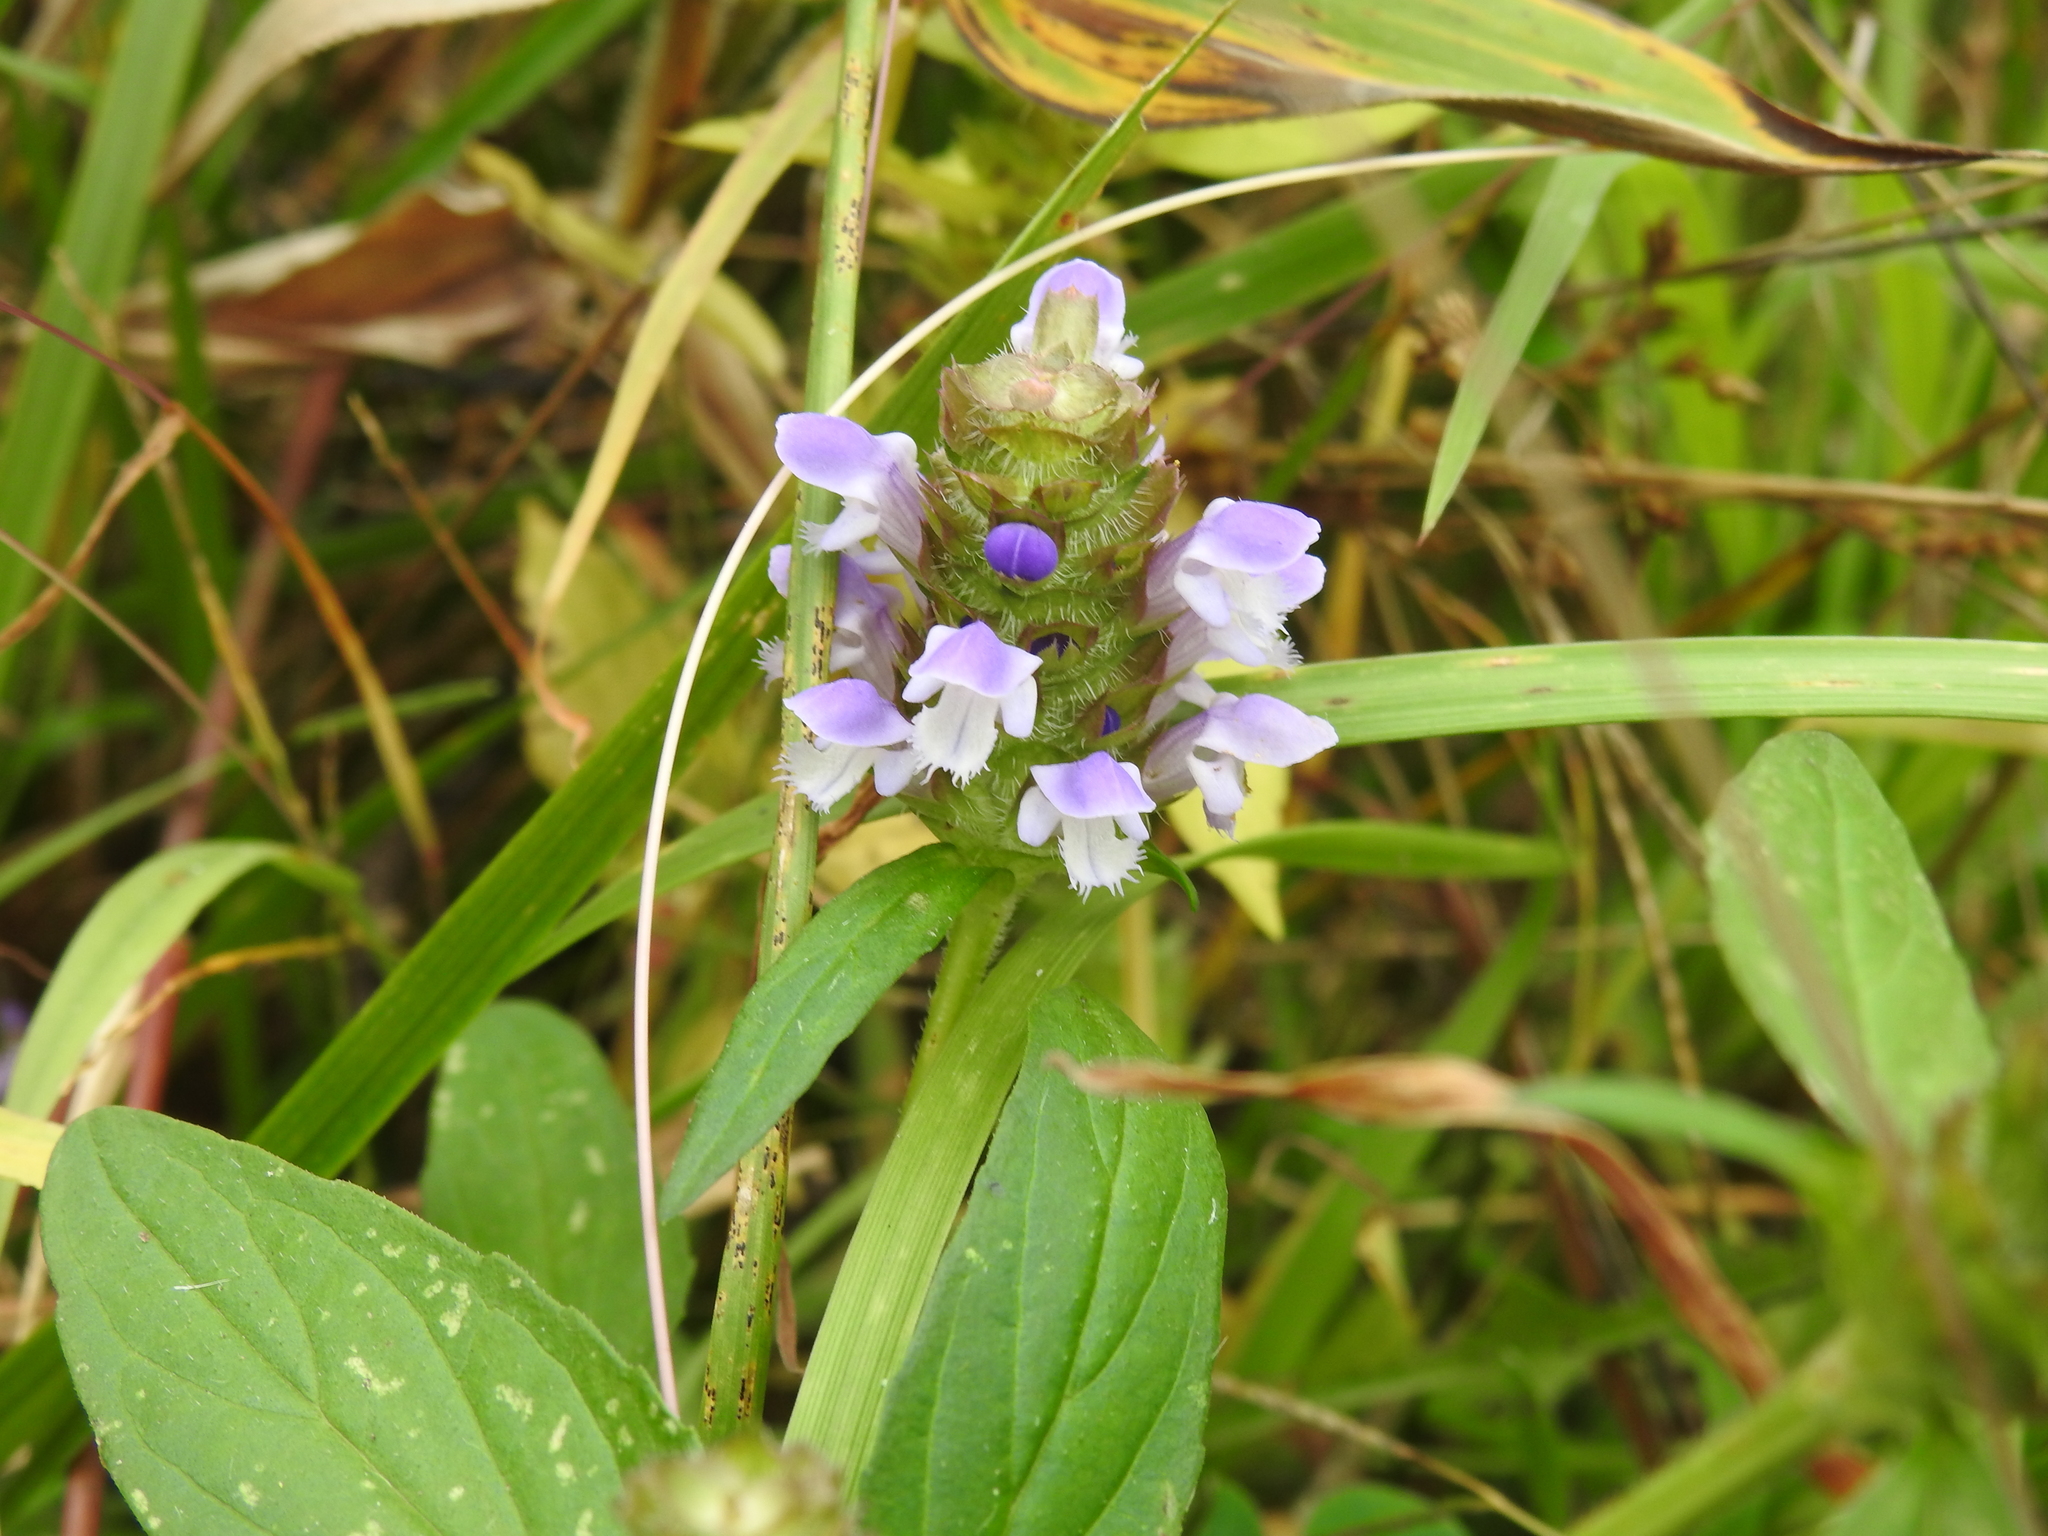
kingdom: Plantae
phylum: Tracheophyta
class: Magnoliopsida
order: Lamiales
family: Lamiaceae
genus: Prunella
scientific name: Prunella vulgaris
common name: Heal-all
